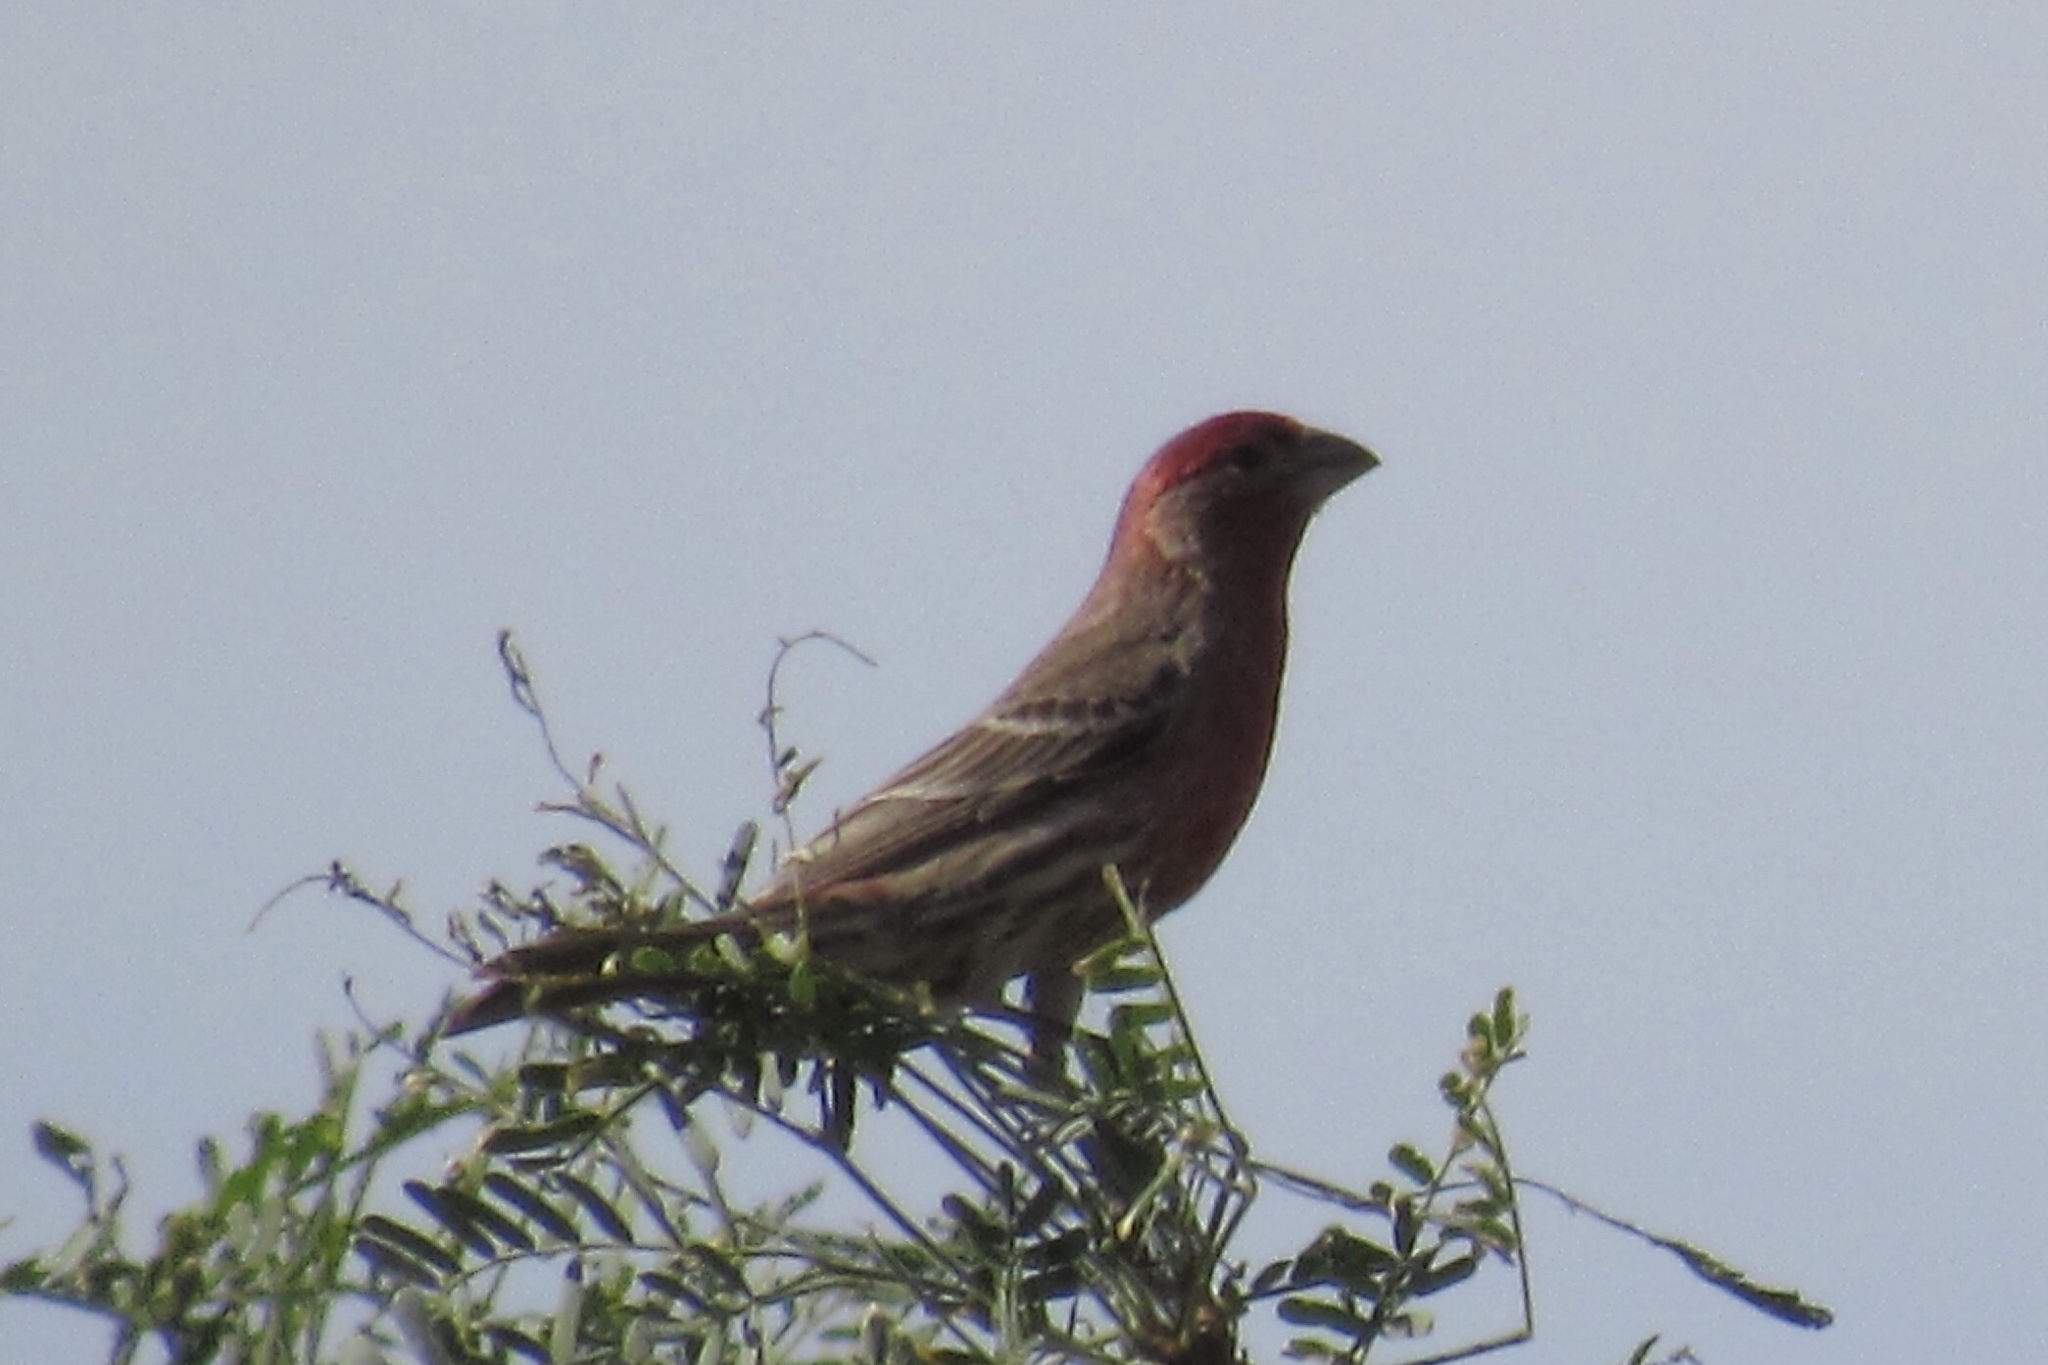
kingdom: Animalia
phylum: Chordata
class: Aves
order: Passeriformes
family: Fringillidae
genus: Haemorhous
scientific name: Haemorhous mexicanus
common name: House finch
